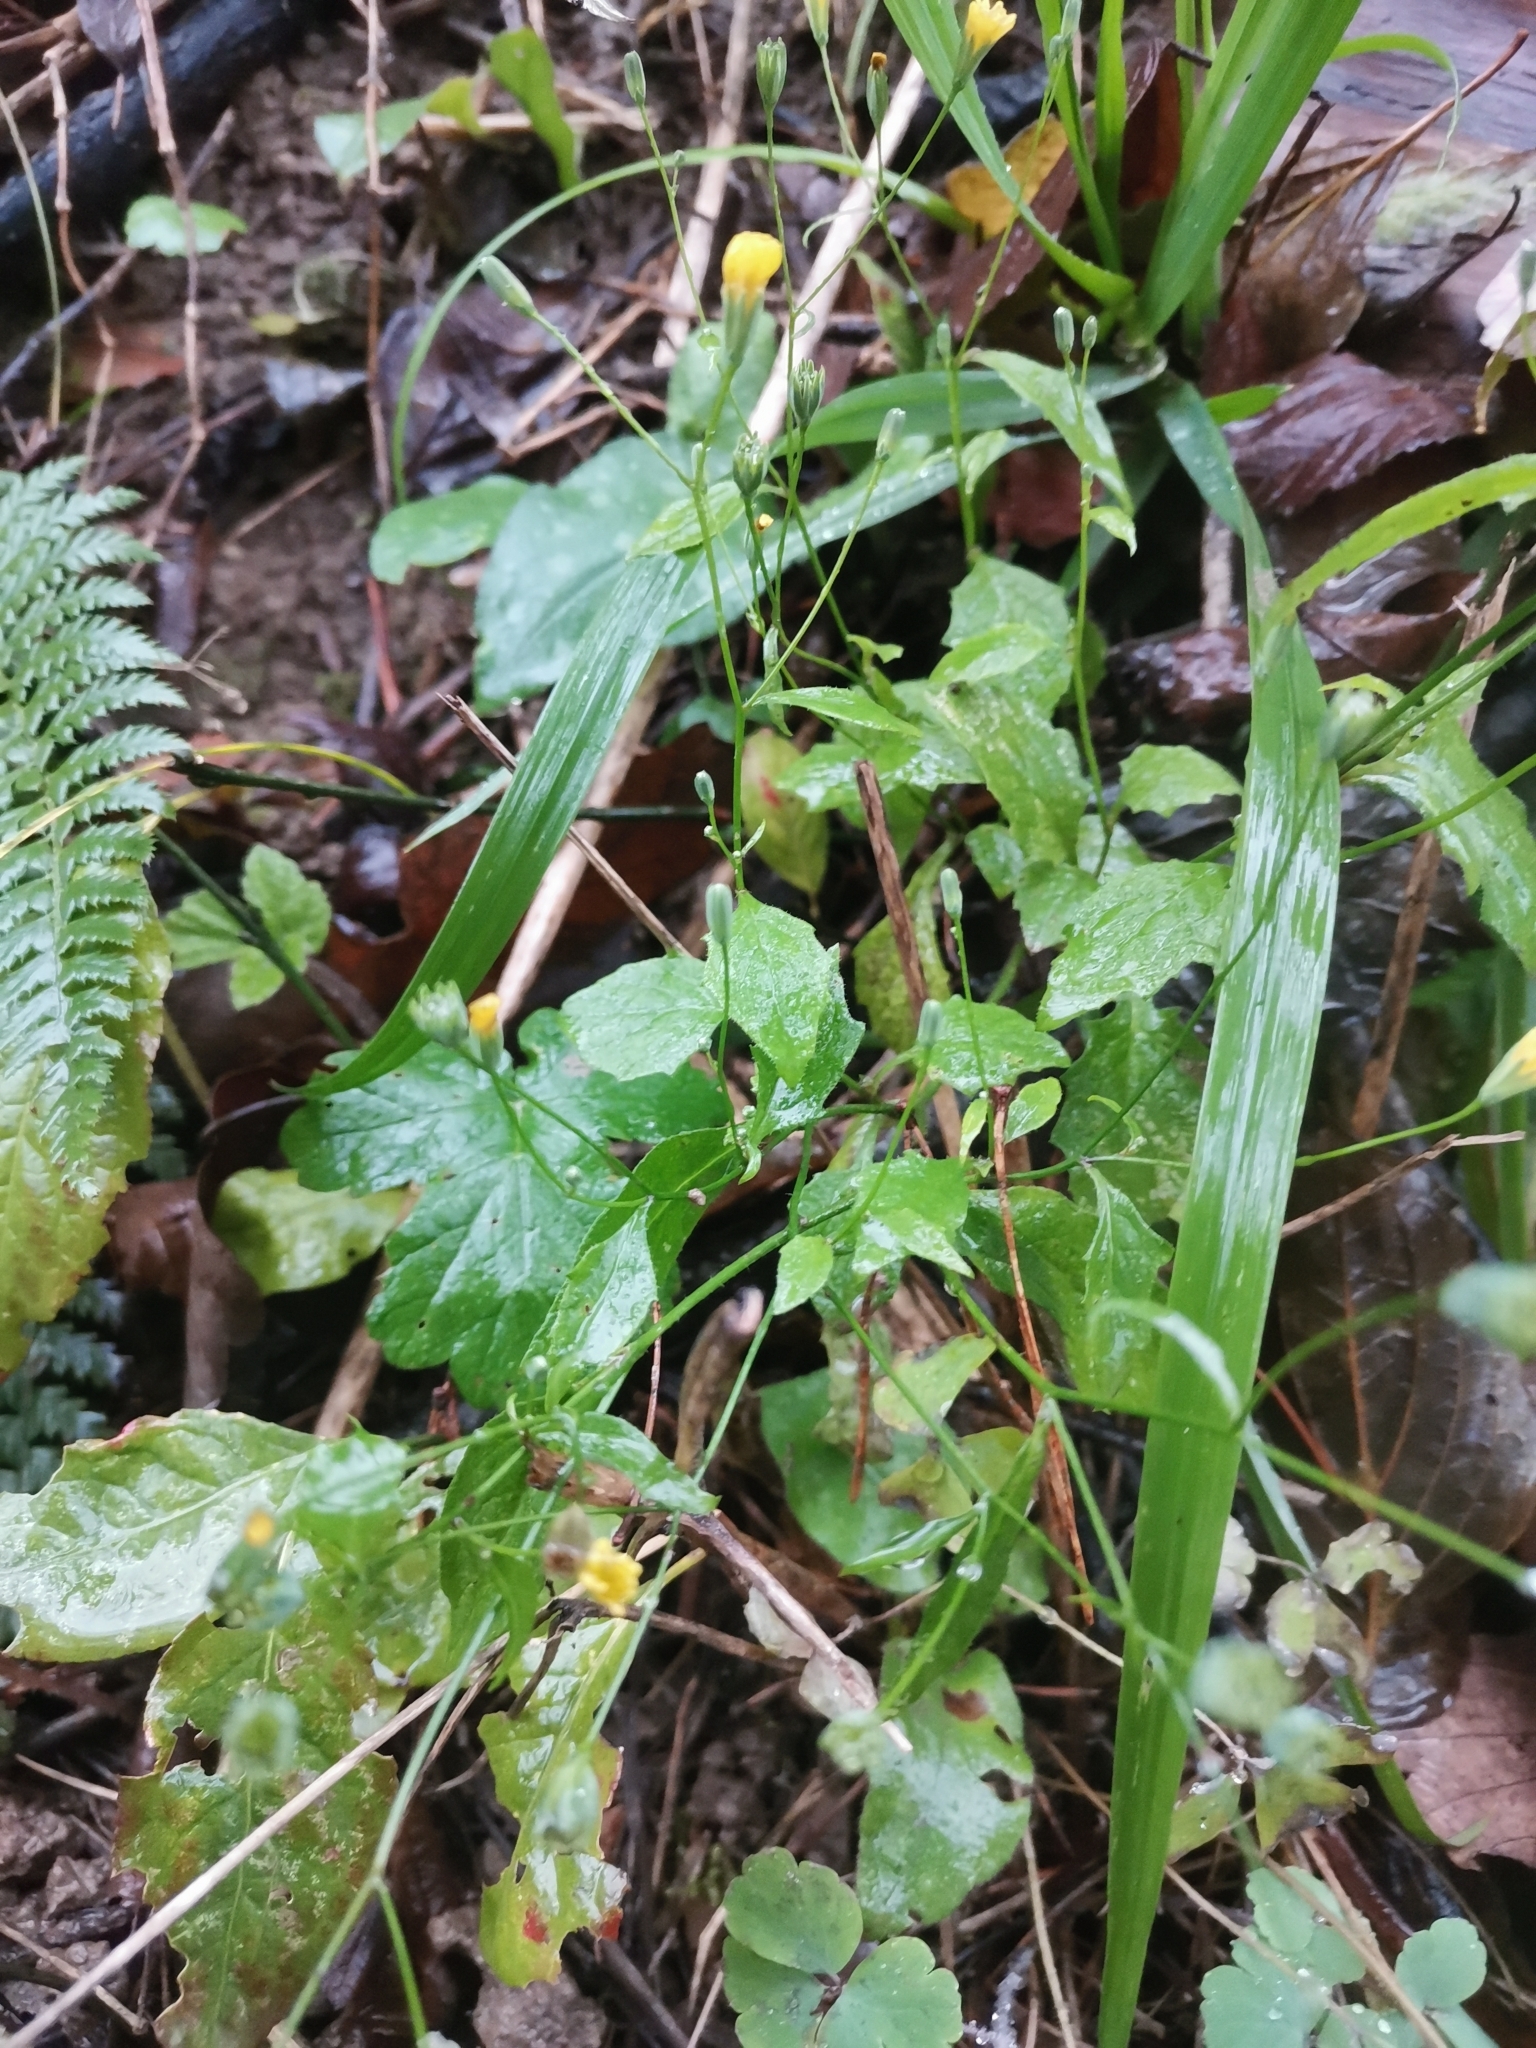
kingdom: Plantae
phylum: Tracheophyta
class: Magnoliopsida
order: Asterales
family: Asteraceae
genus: Lapsana
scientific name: Lapsana communis
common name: Nipplewort
